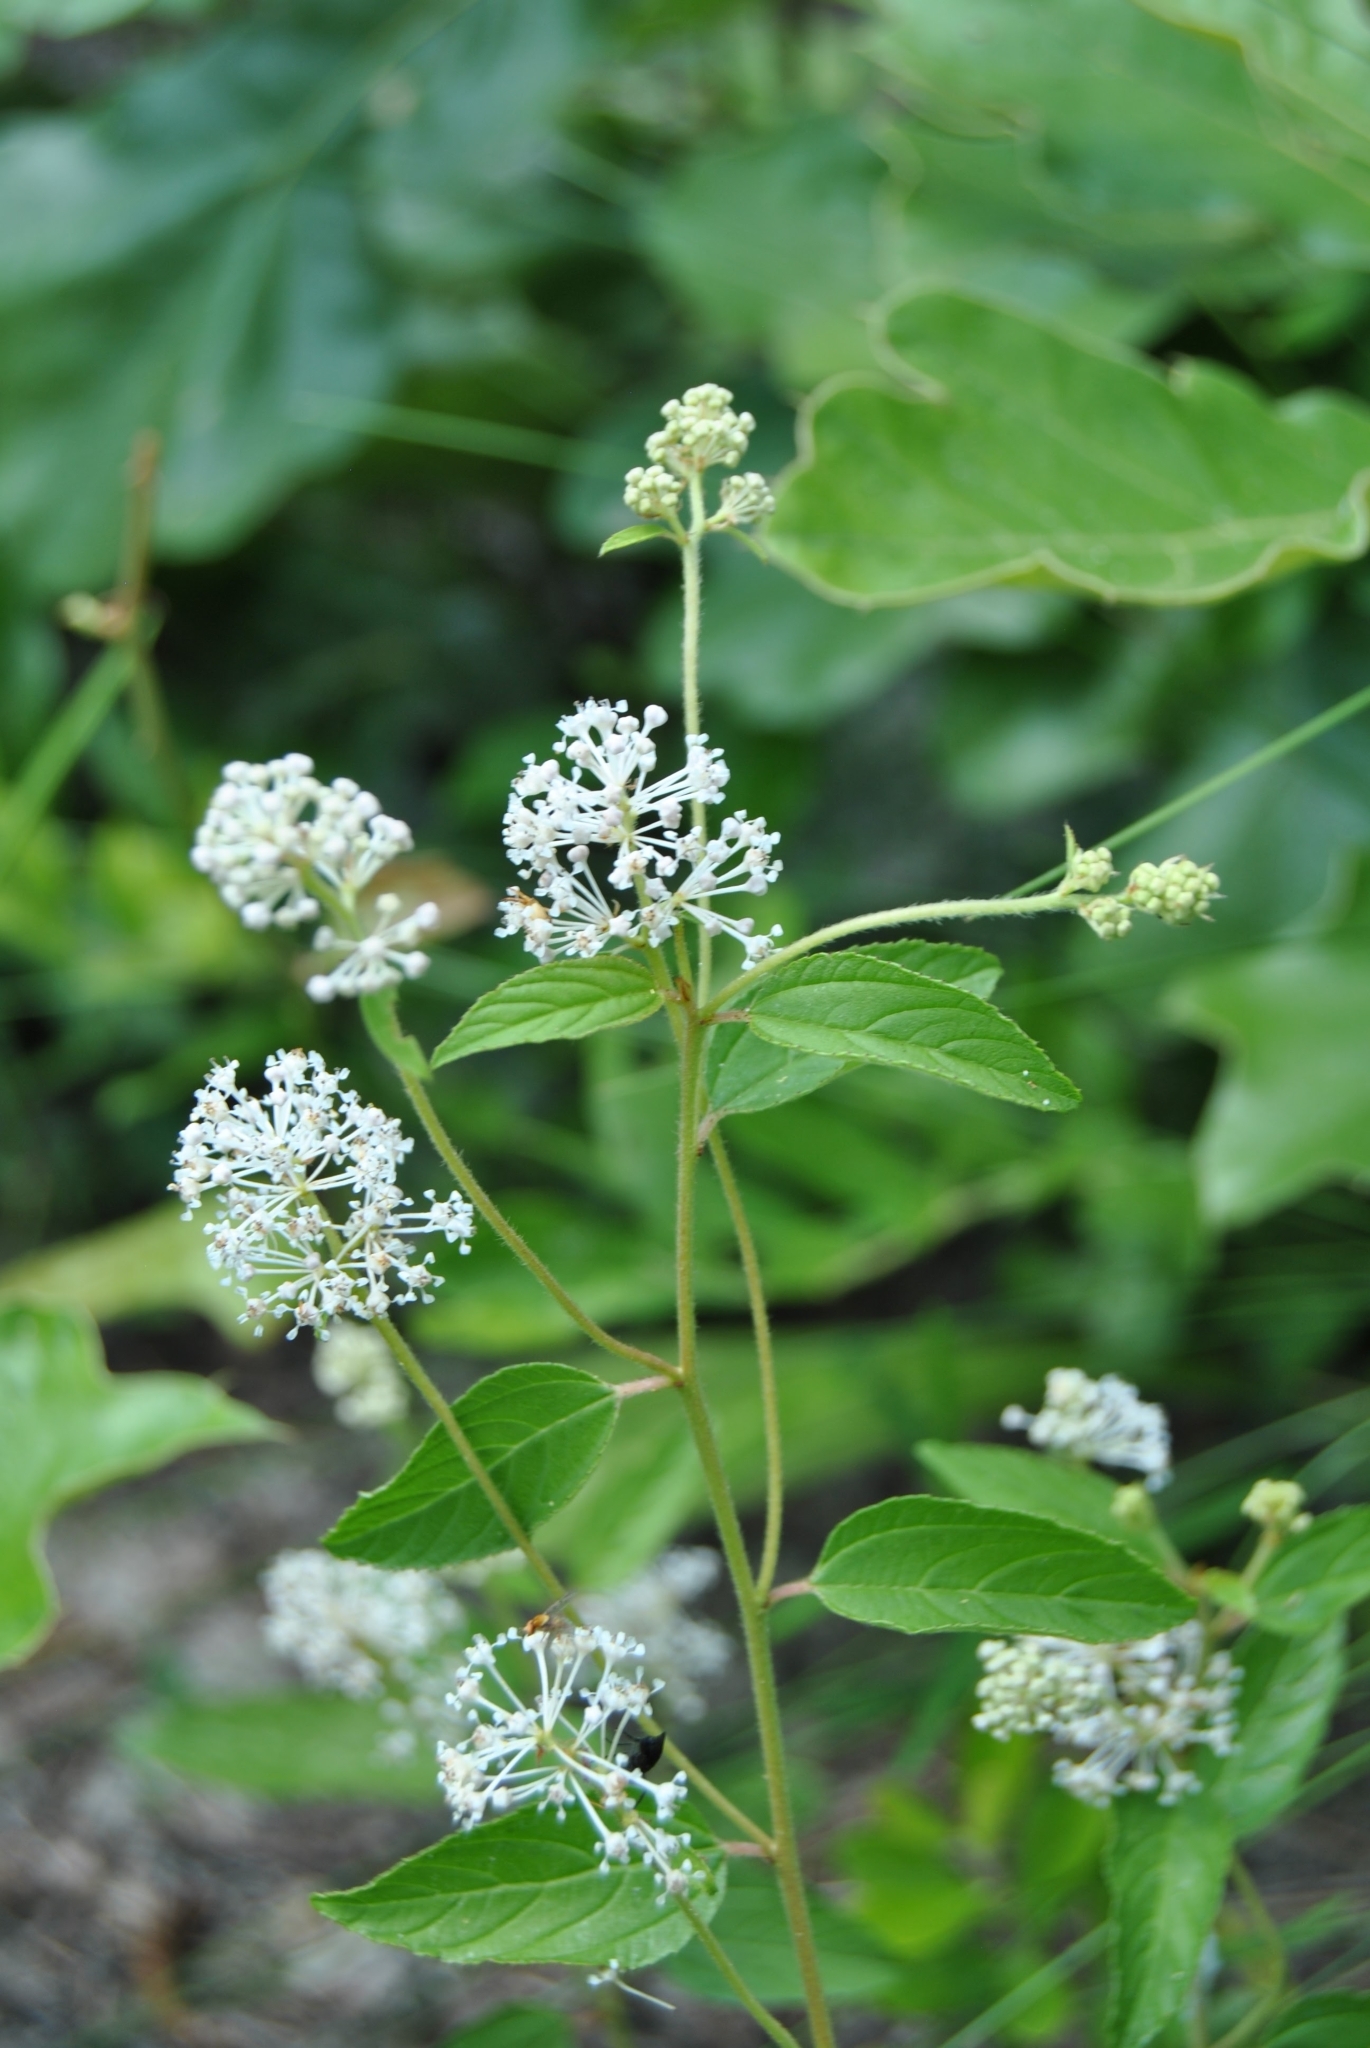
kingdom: Plantae
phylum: Tracheophyta
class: Magnoliopsida
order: Rosales
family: Rhamnaceae
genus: Ceanothus
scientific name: Ceanothus americanus
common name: Redroot
